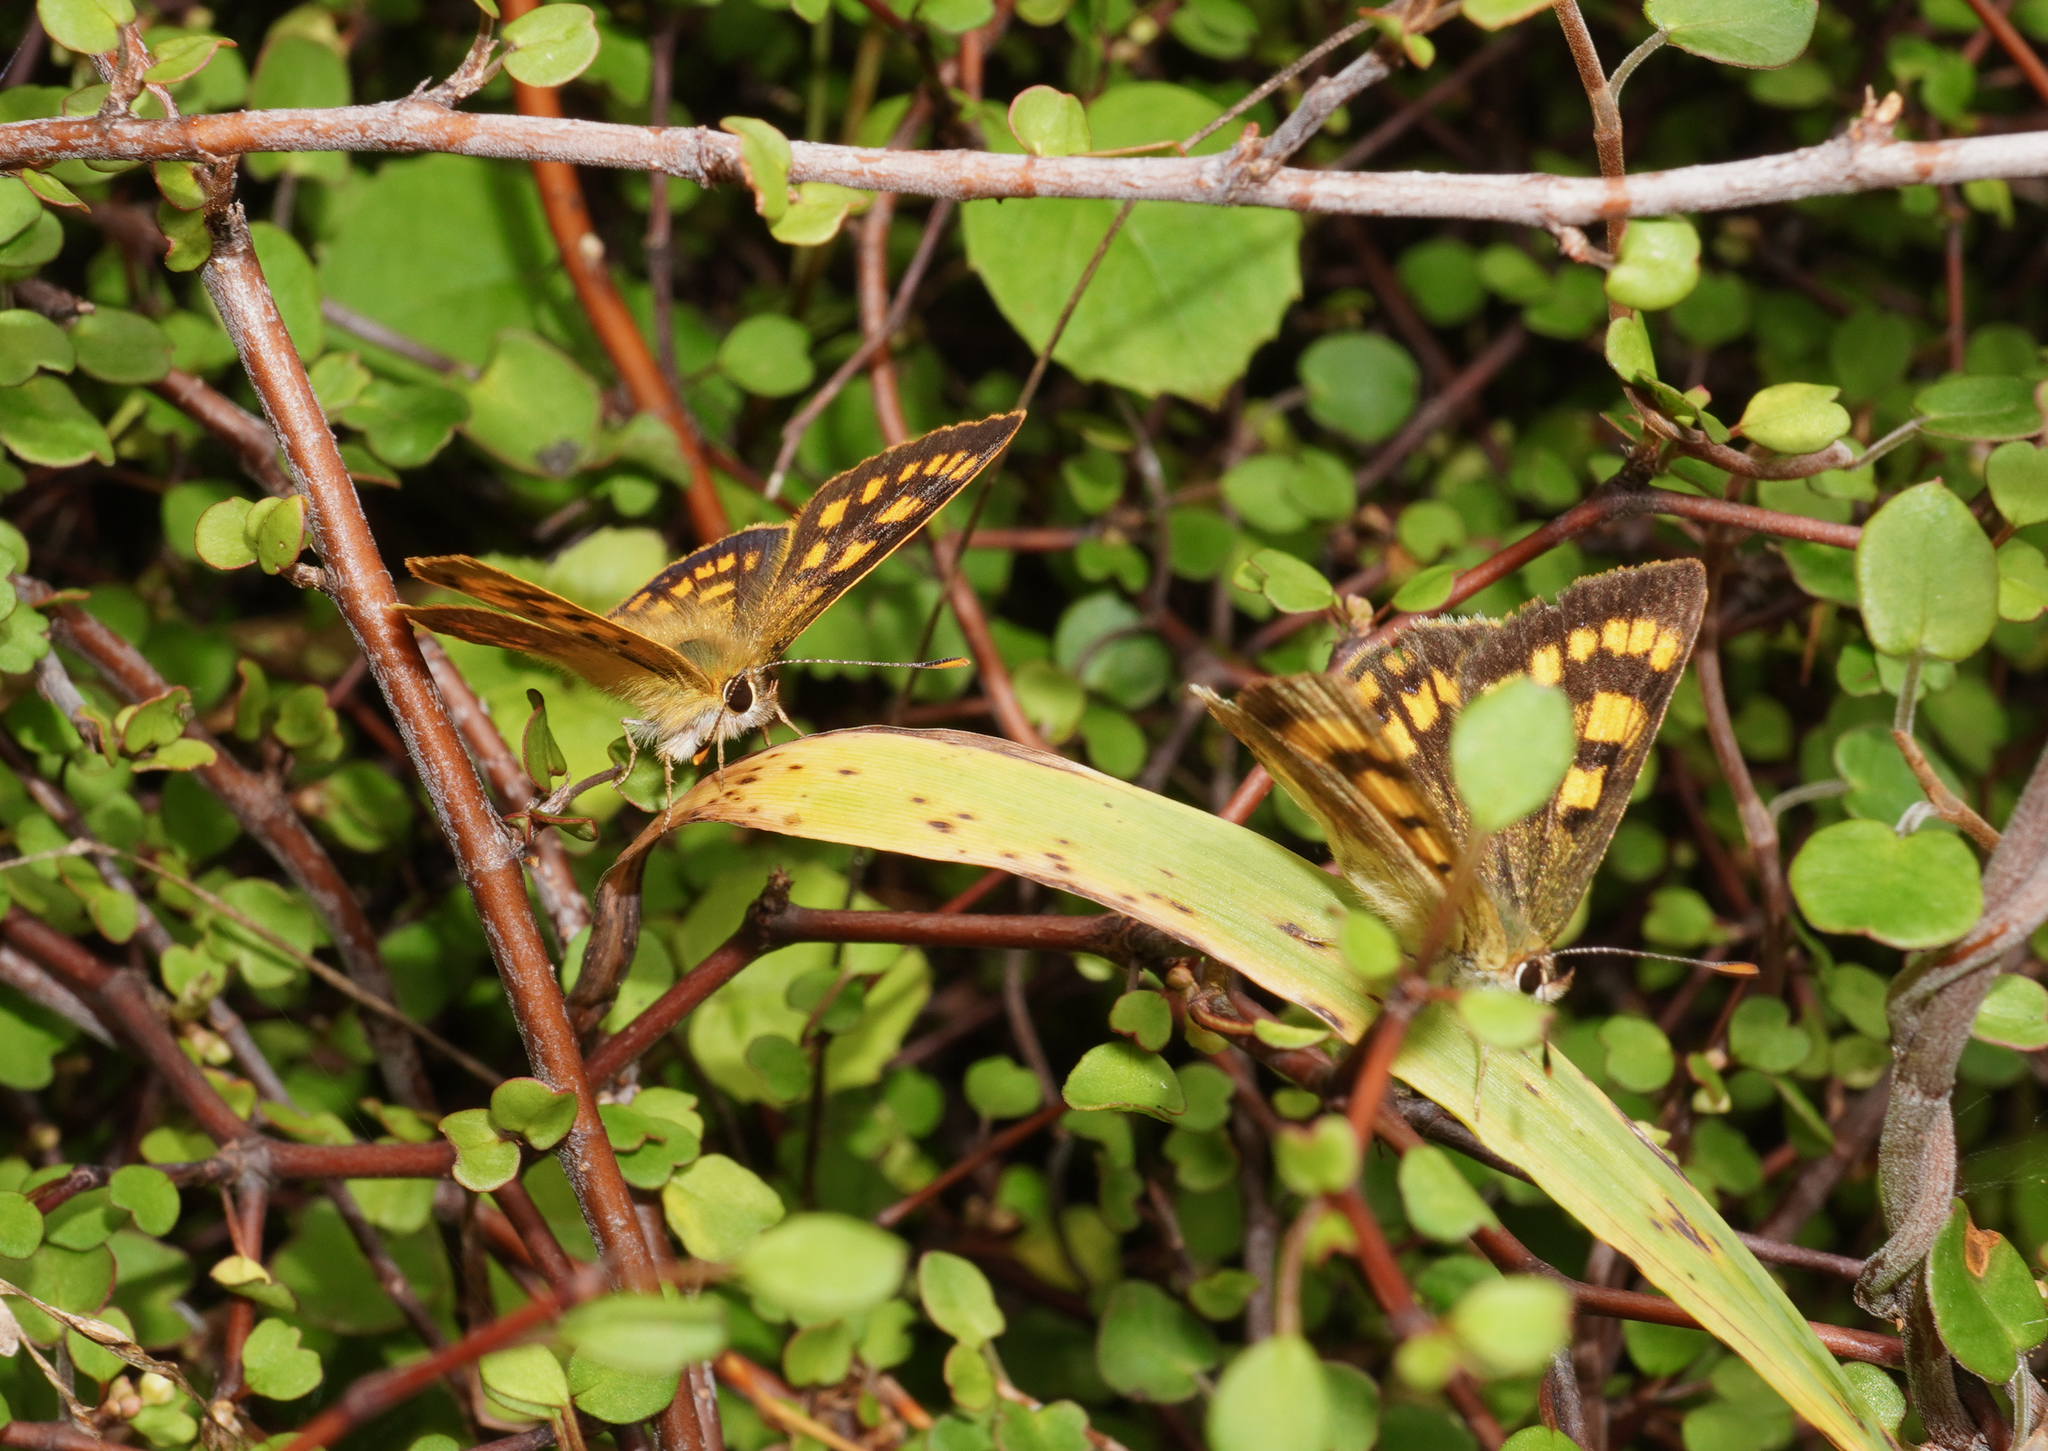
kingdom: Animalia
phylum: Arthropoda
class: Insecta
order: Lepidoptera
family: Lycaenidae
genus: Lycaena
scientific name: Lycaena
